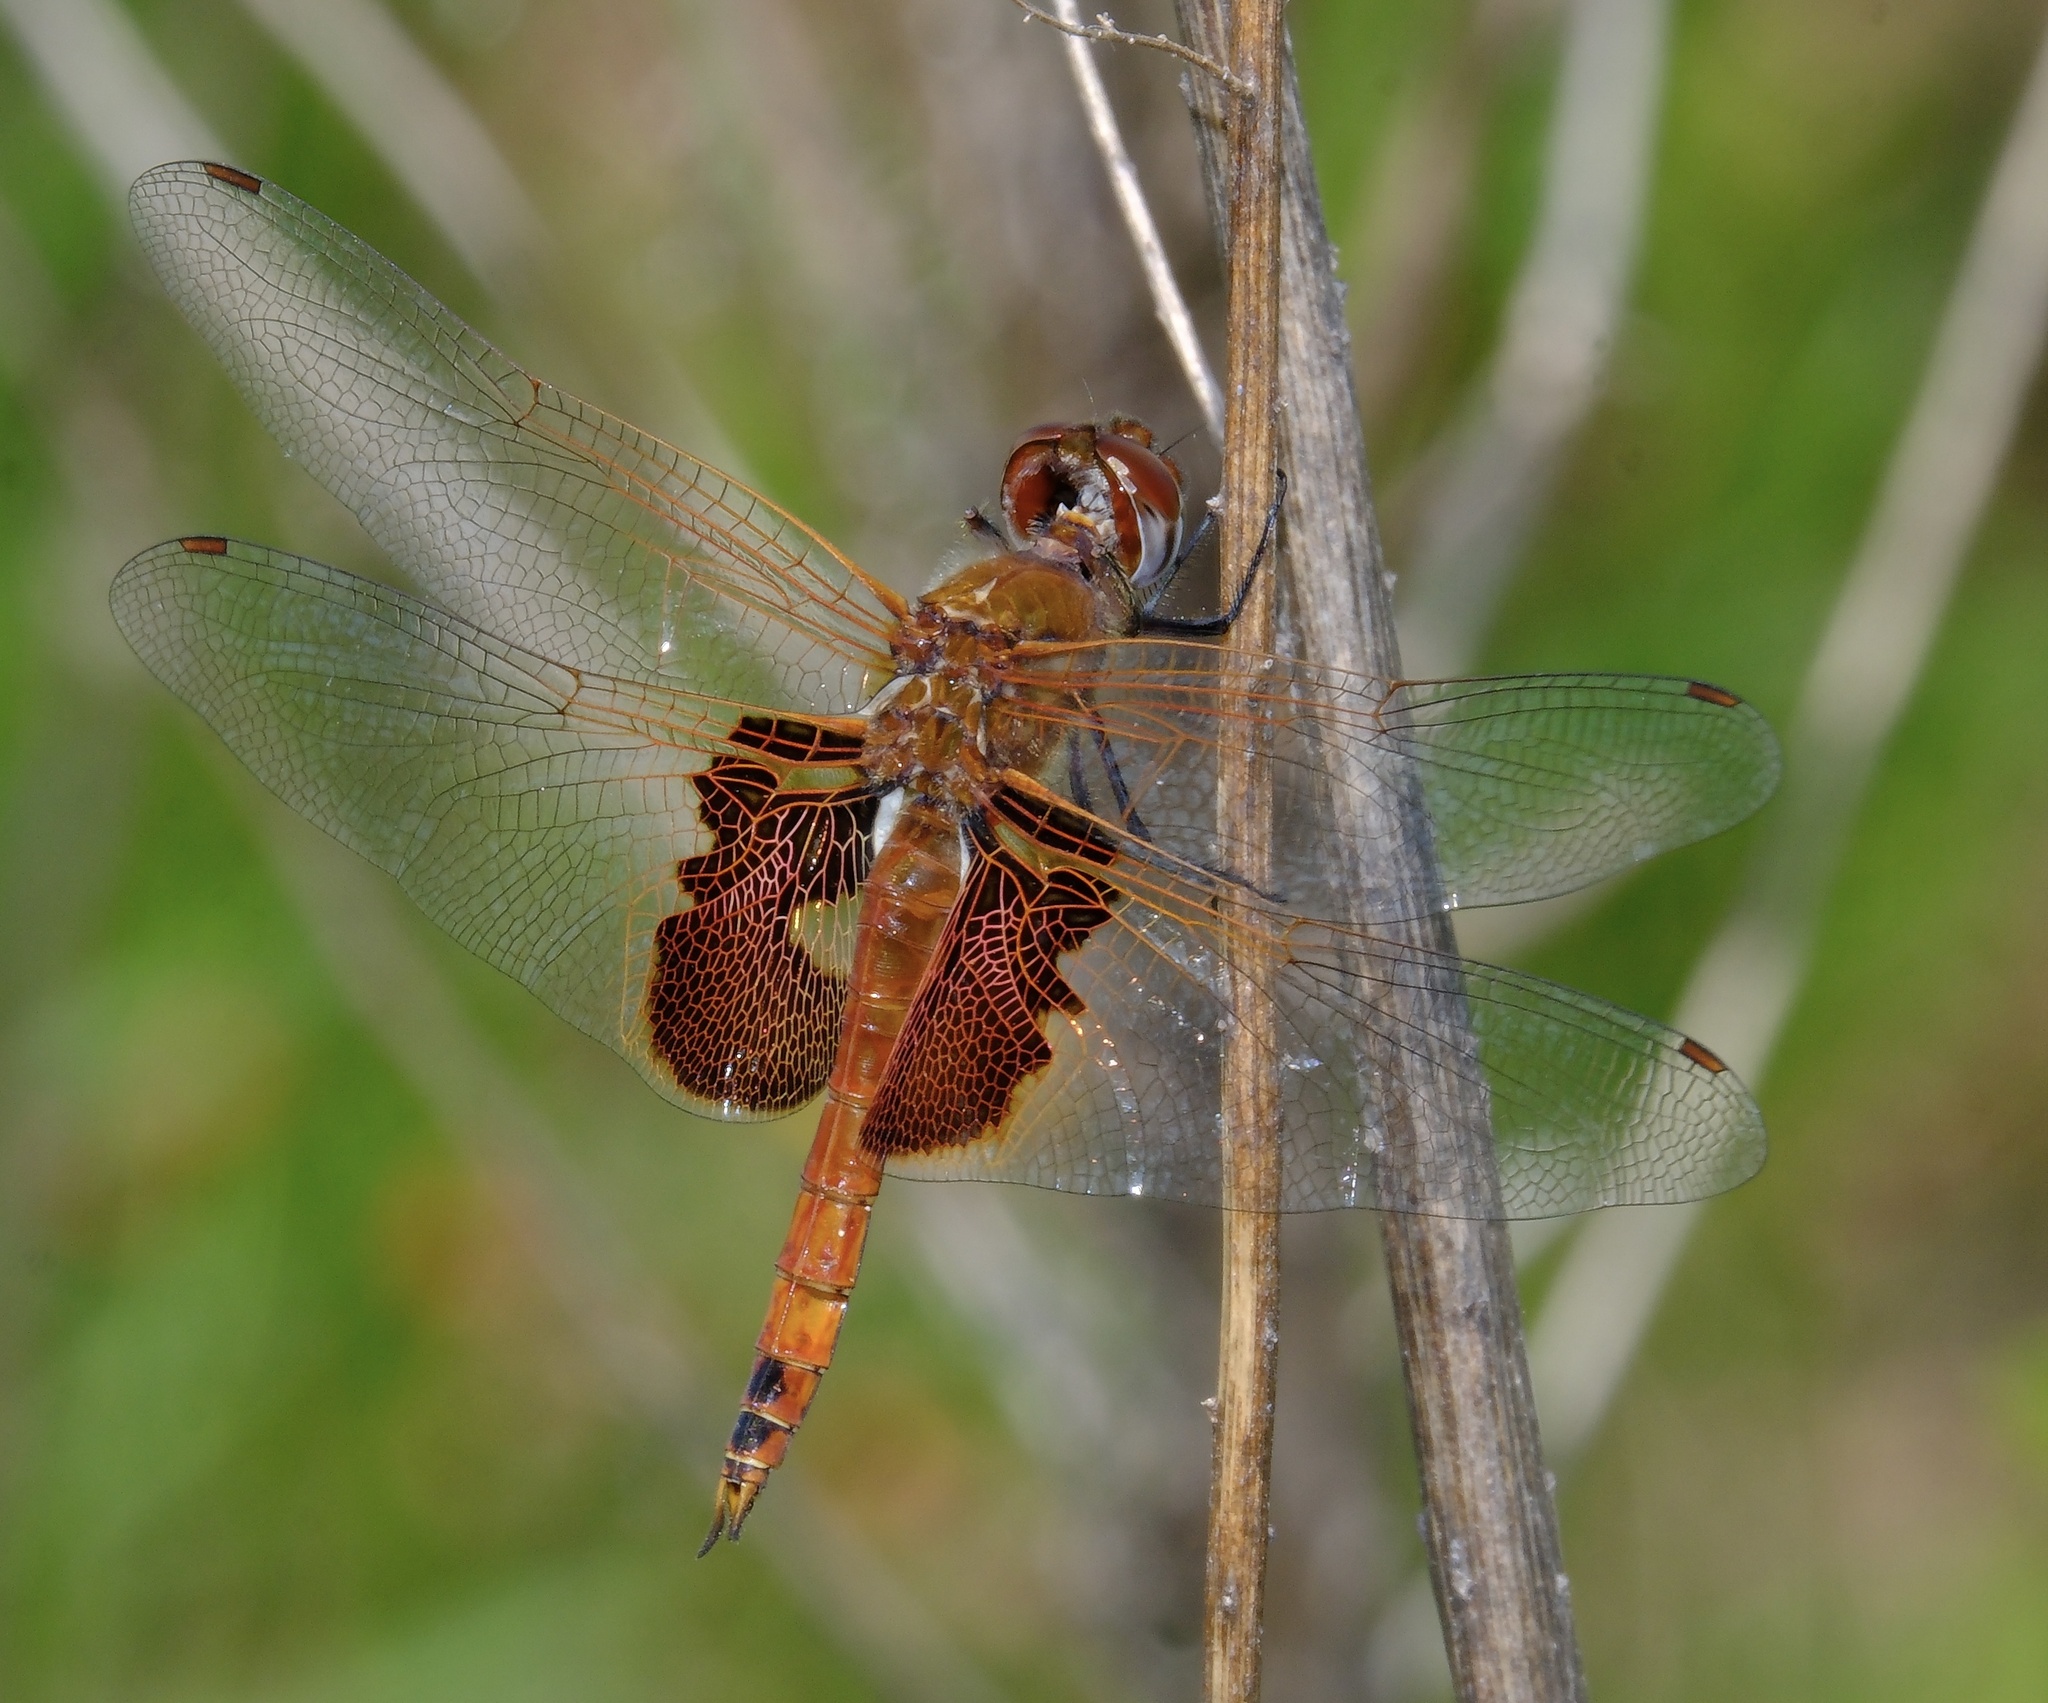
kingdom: Animalia
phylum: Arthropoda
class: Insecta
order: Odonata
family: Libellulidae
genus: Tramea
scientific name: Tramea onusta
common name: Red saddlebags
